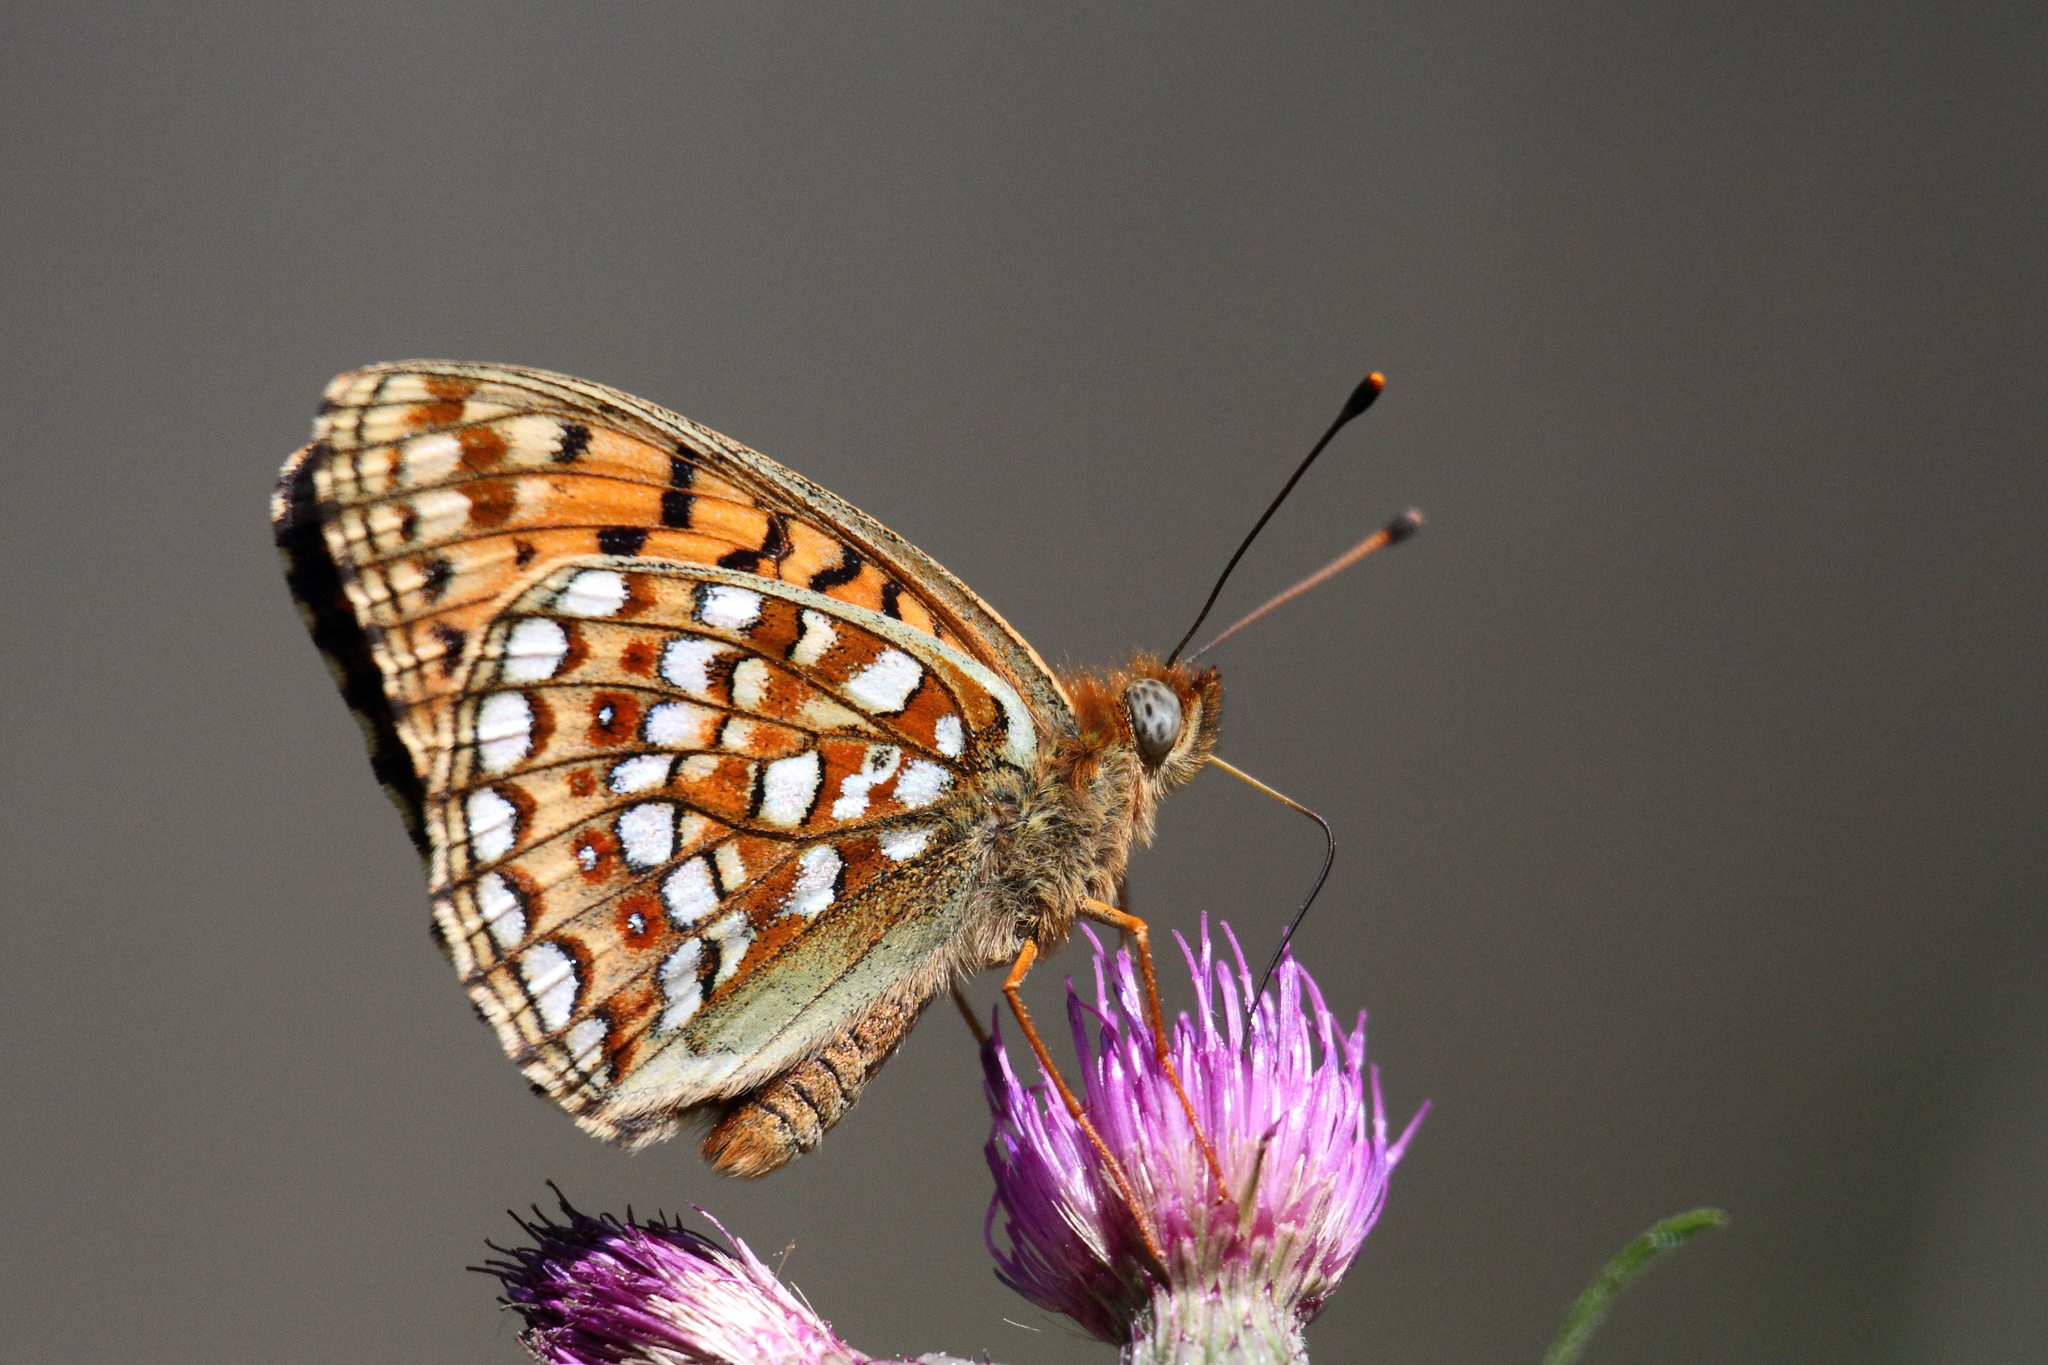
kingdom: Animalia
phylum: Arthropoda
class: Insecta
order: Lepidoptera
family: Nymphalidae
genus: Fabriciana
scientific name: Fabriciana niobe
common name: Niobe fritillary
